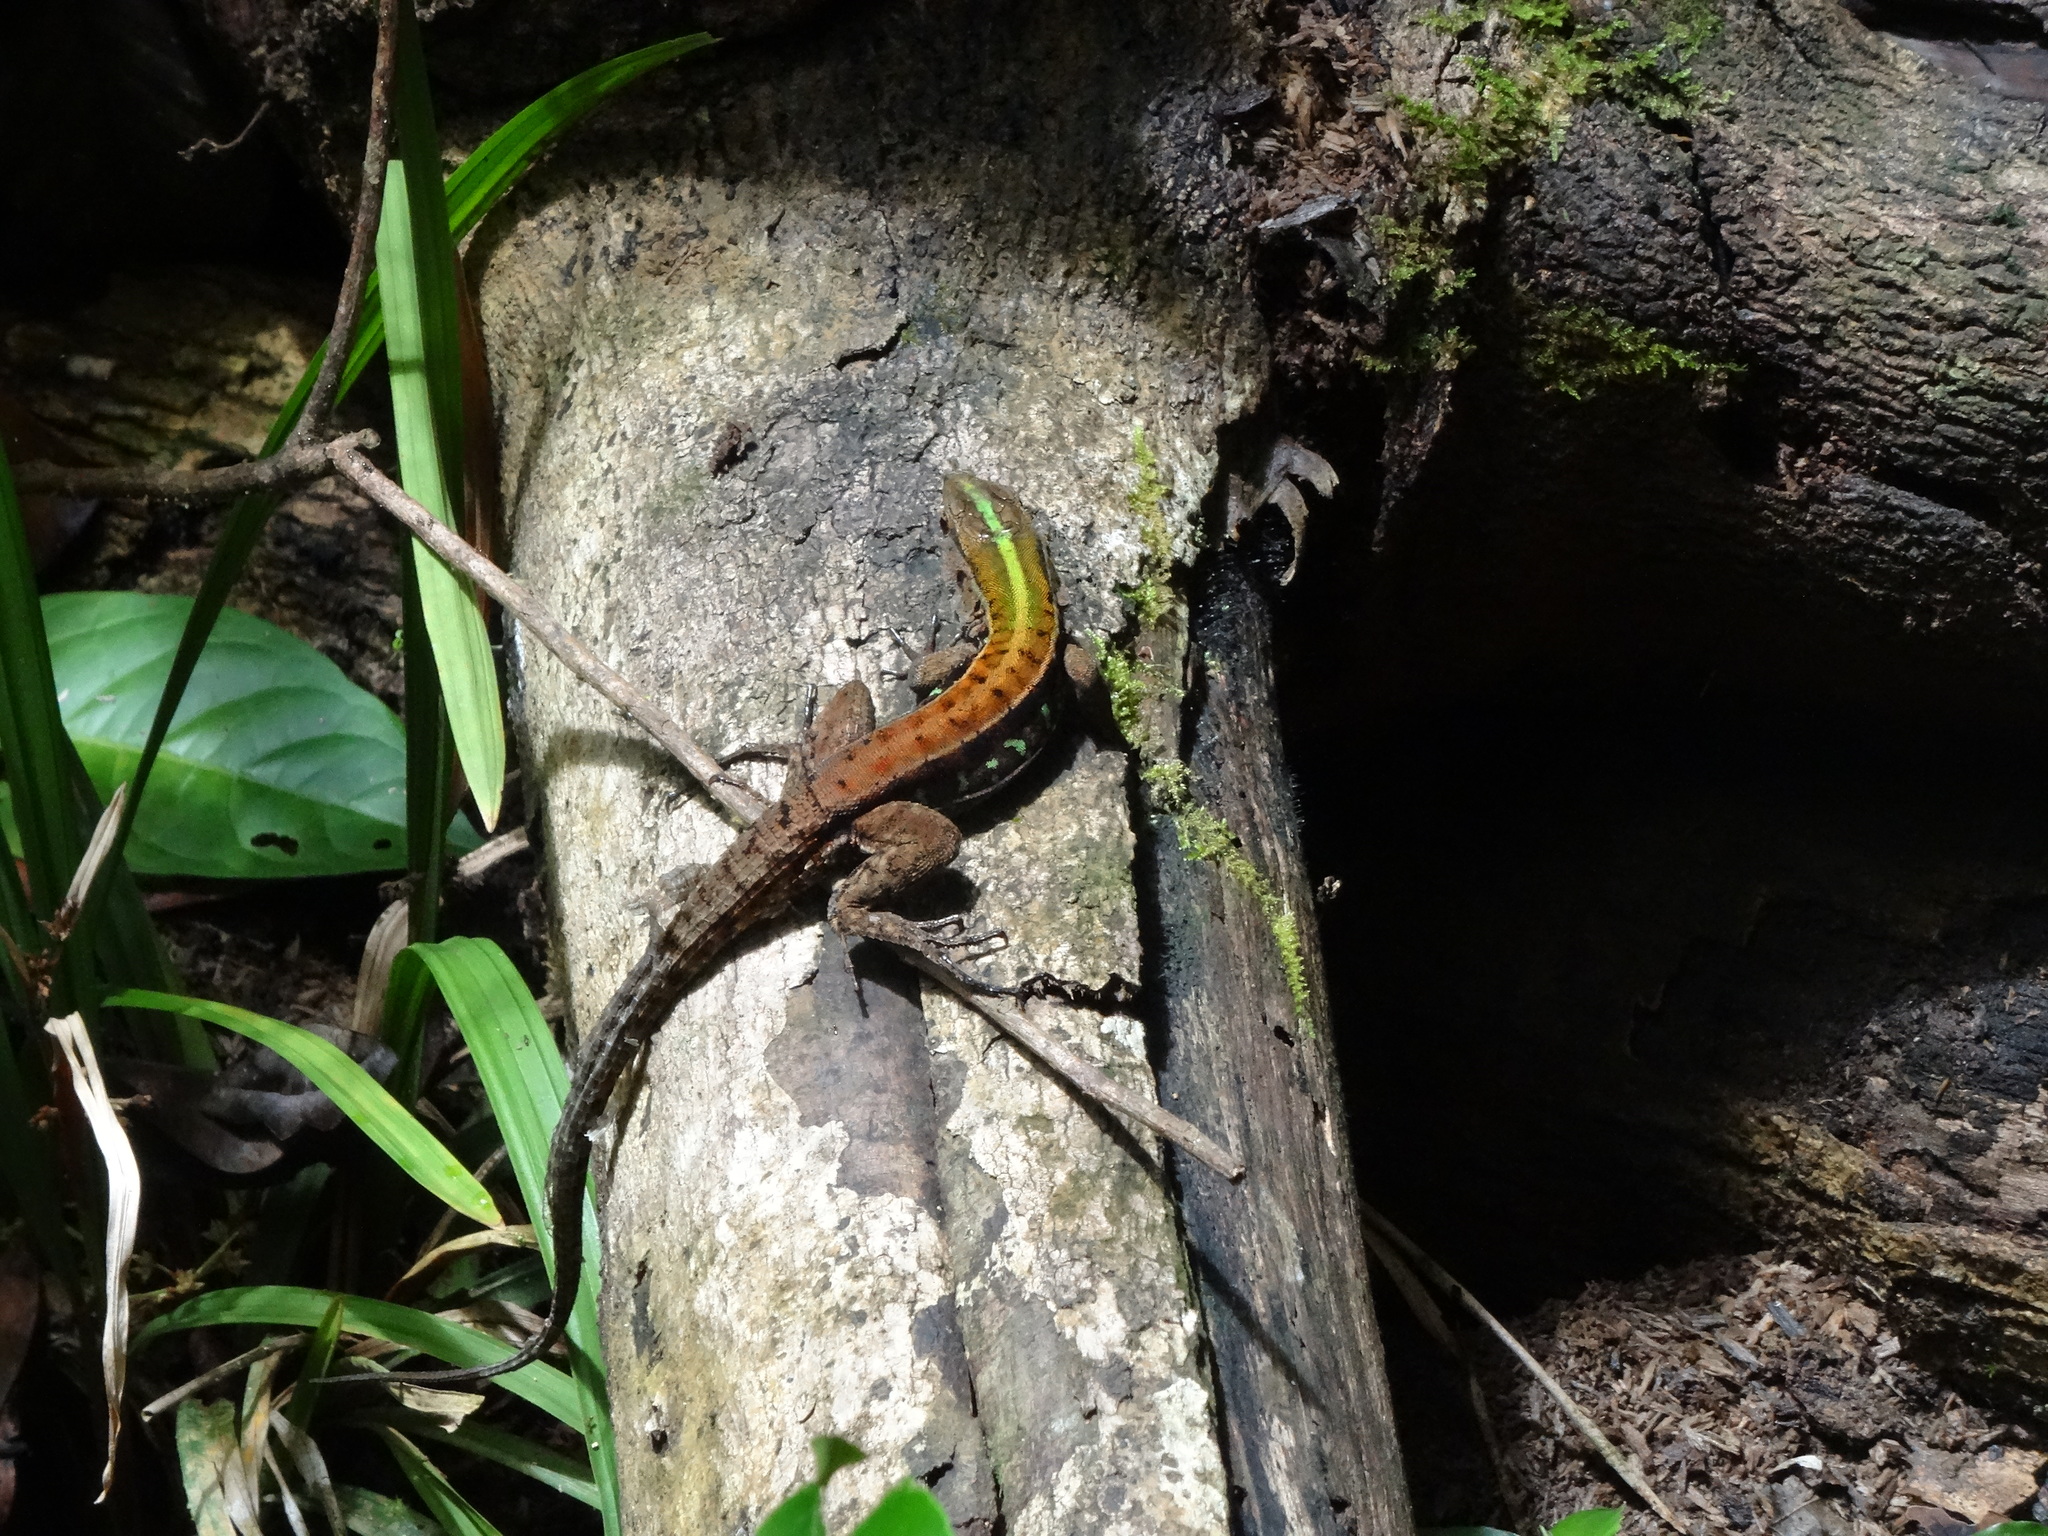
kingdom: Animalia
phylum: Chordata
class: Squamata
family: Teiidae
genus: Kentropyx
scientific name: Kentropyx calcarata
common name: Striped forest whiptail
